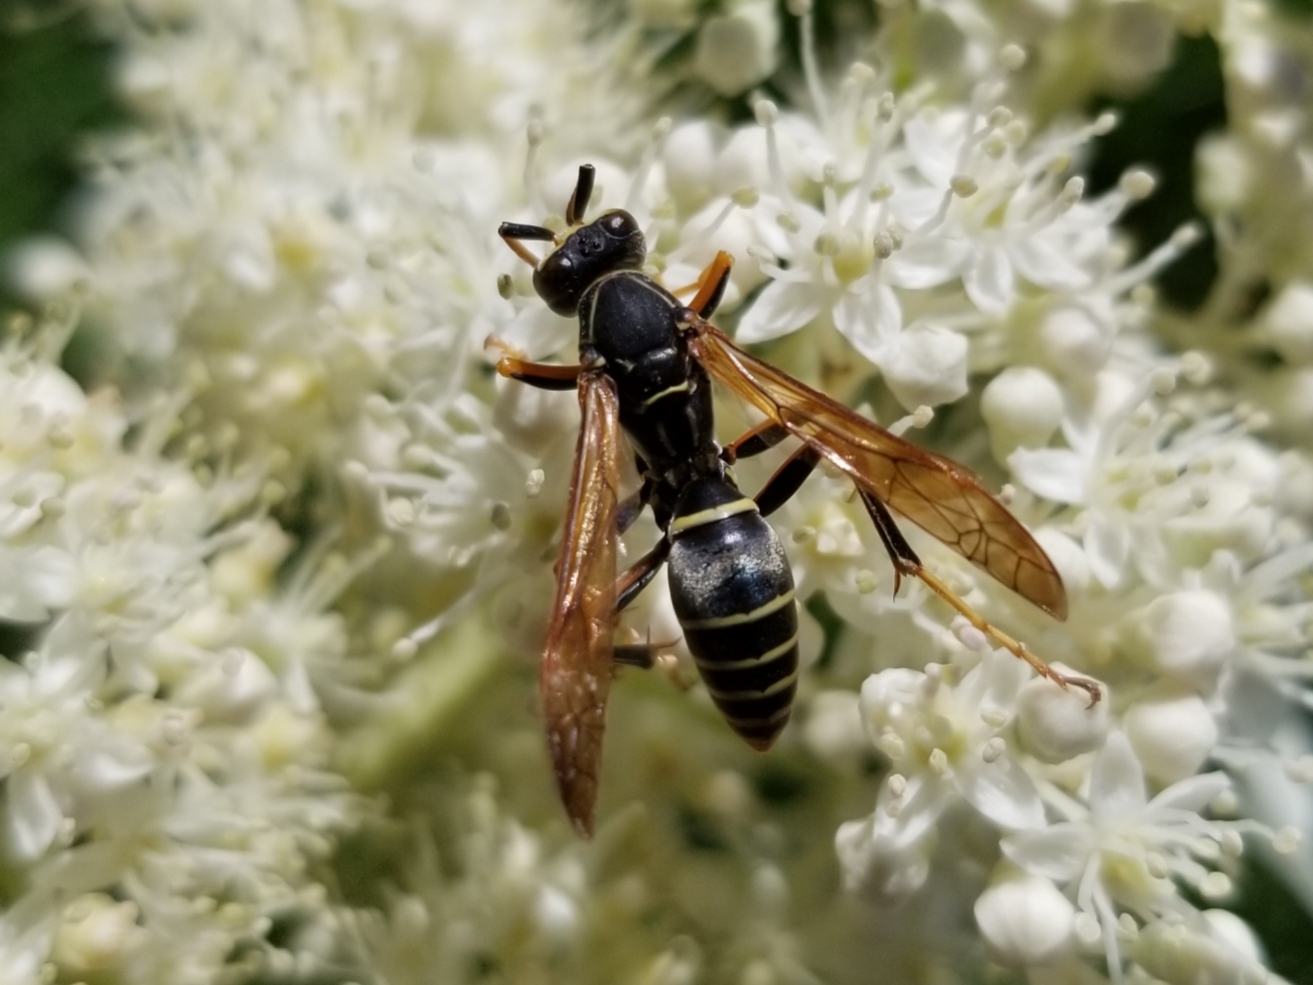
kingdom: Animalia
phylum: Arthropoda
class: Insecta
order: Hymenoptera
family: Eumenidae
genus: Polistes
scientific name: Polistes fuscatus
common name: Dark paper wasp
